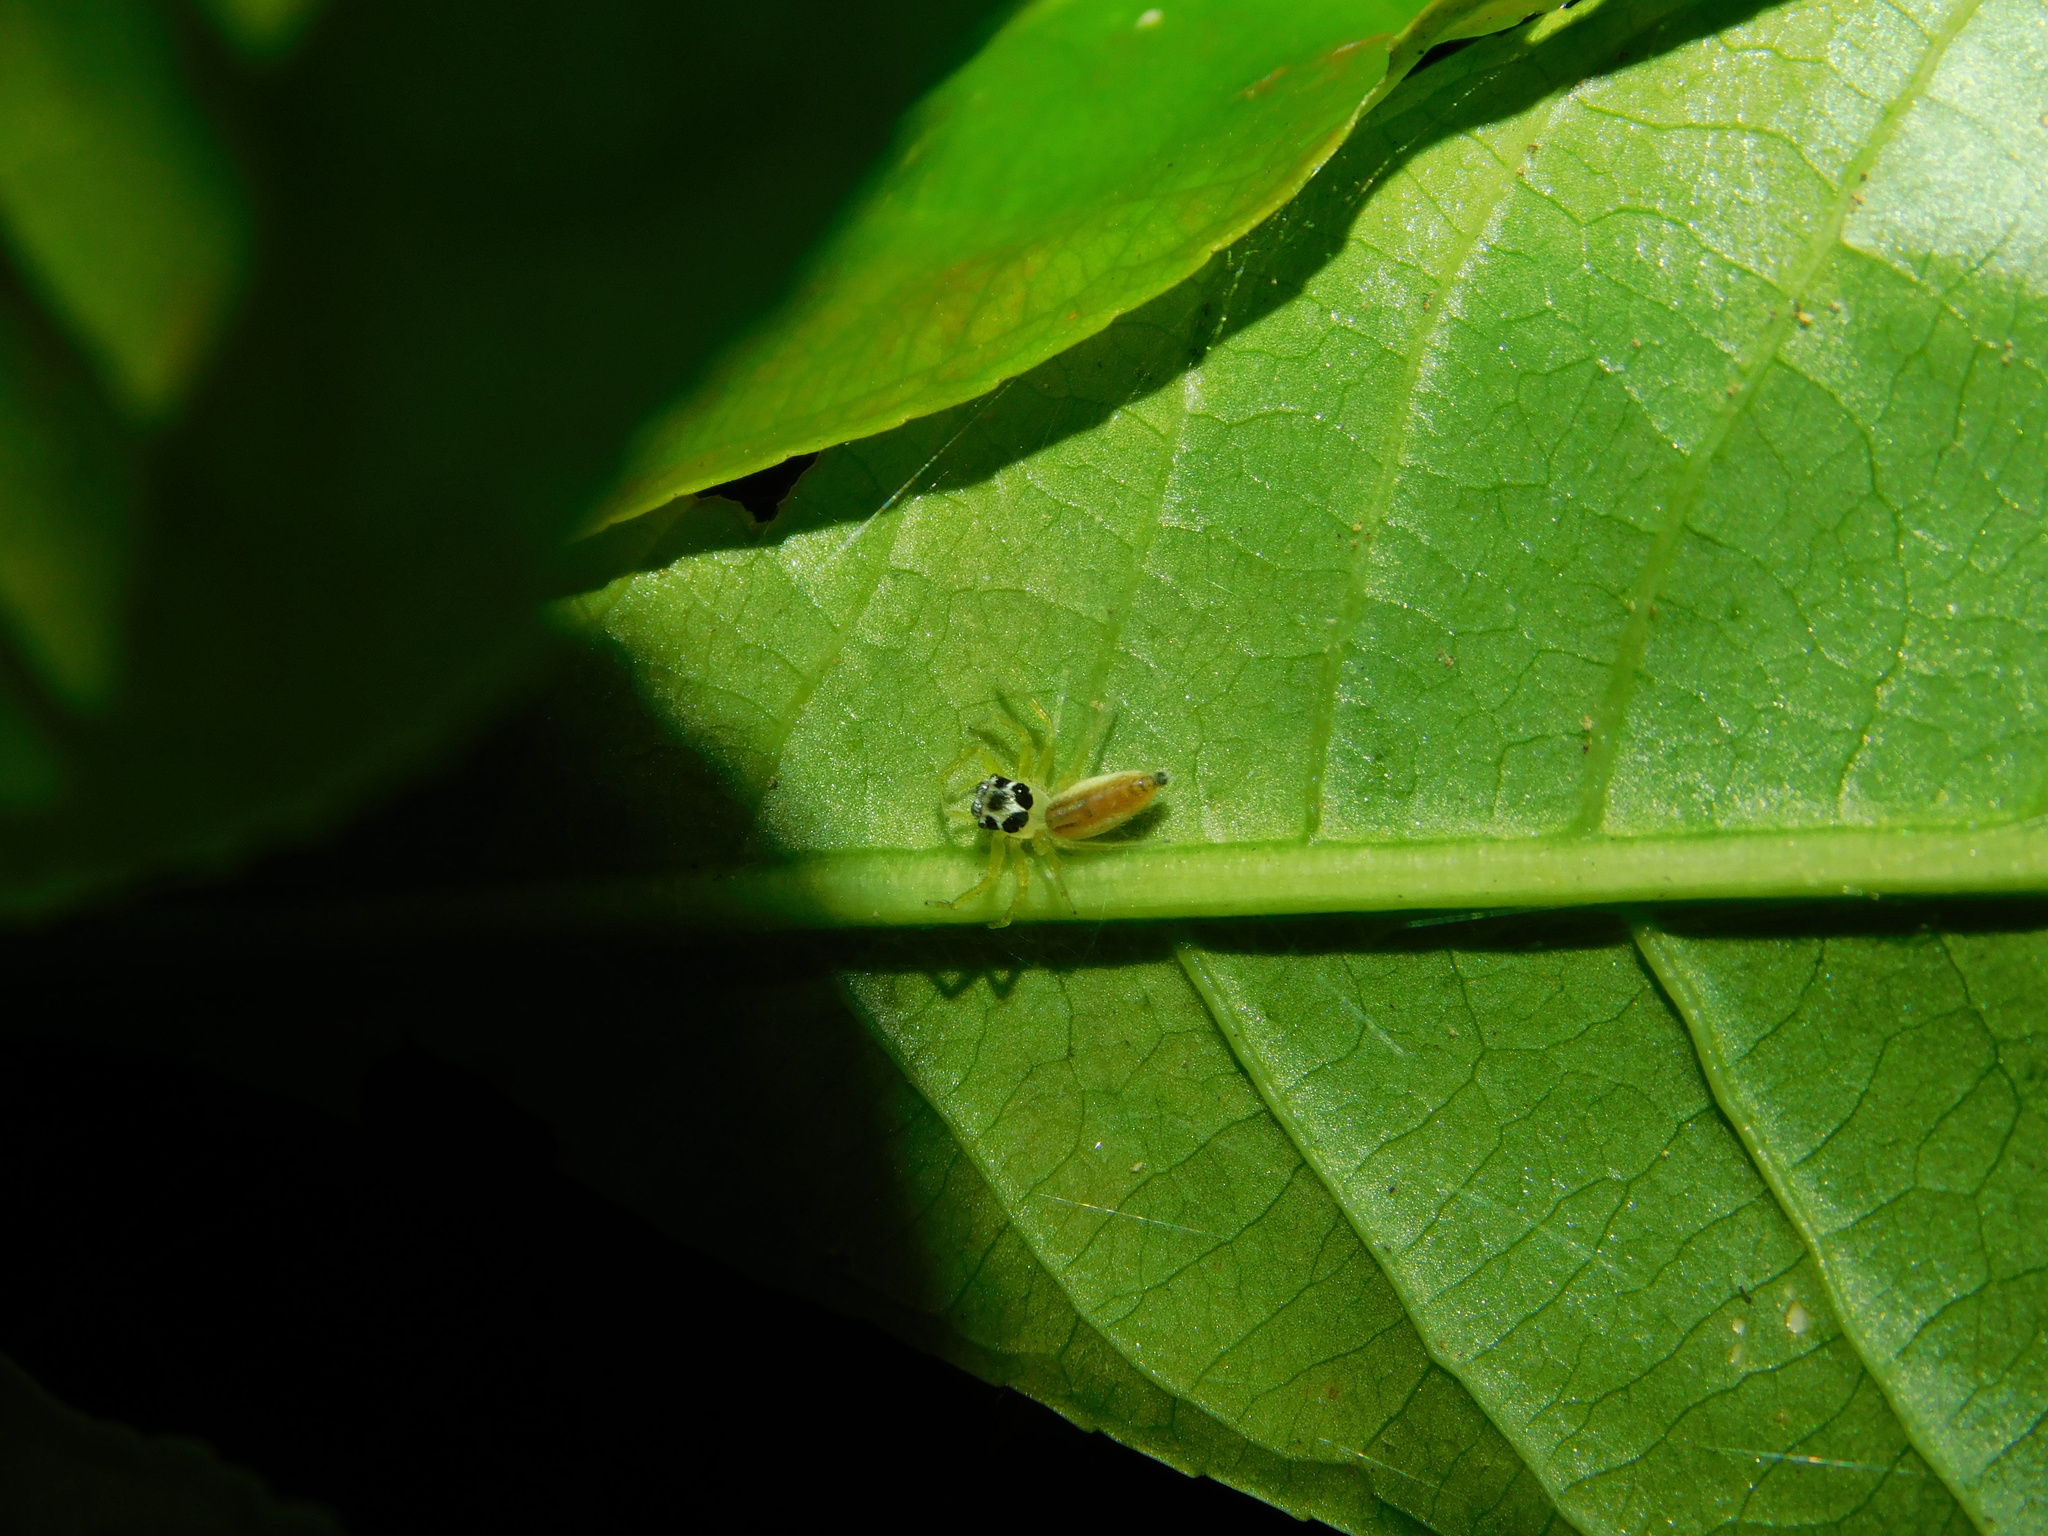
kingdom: Animalia
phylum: Arthropoda
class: Arachnida
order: Araneae
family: Salticidae
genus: Telamonia
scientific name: Telamonia dimidiata
